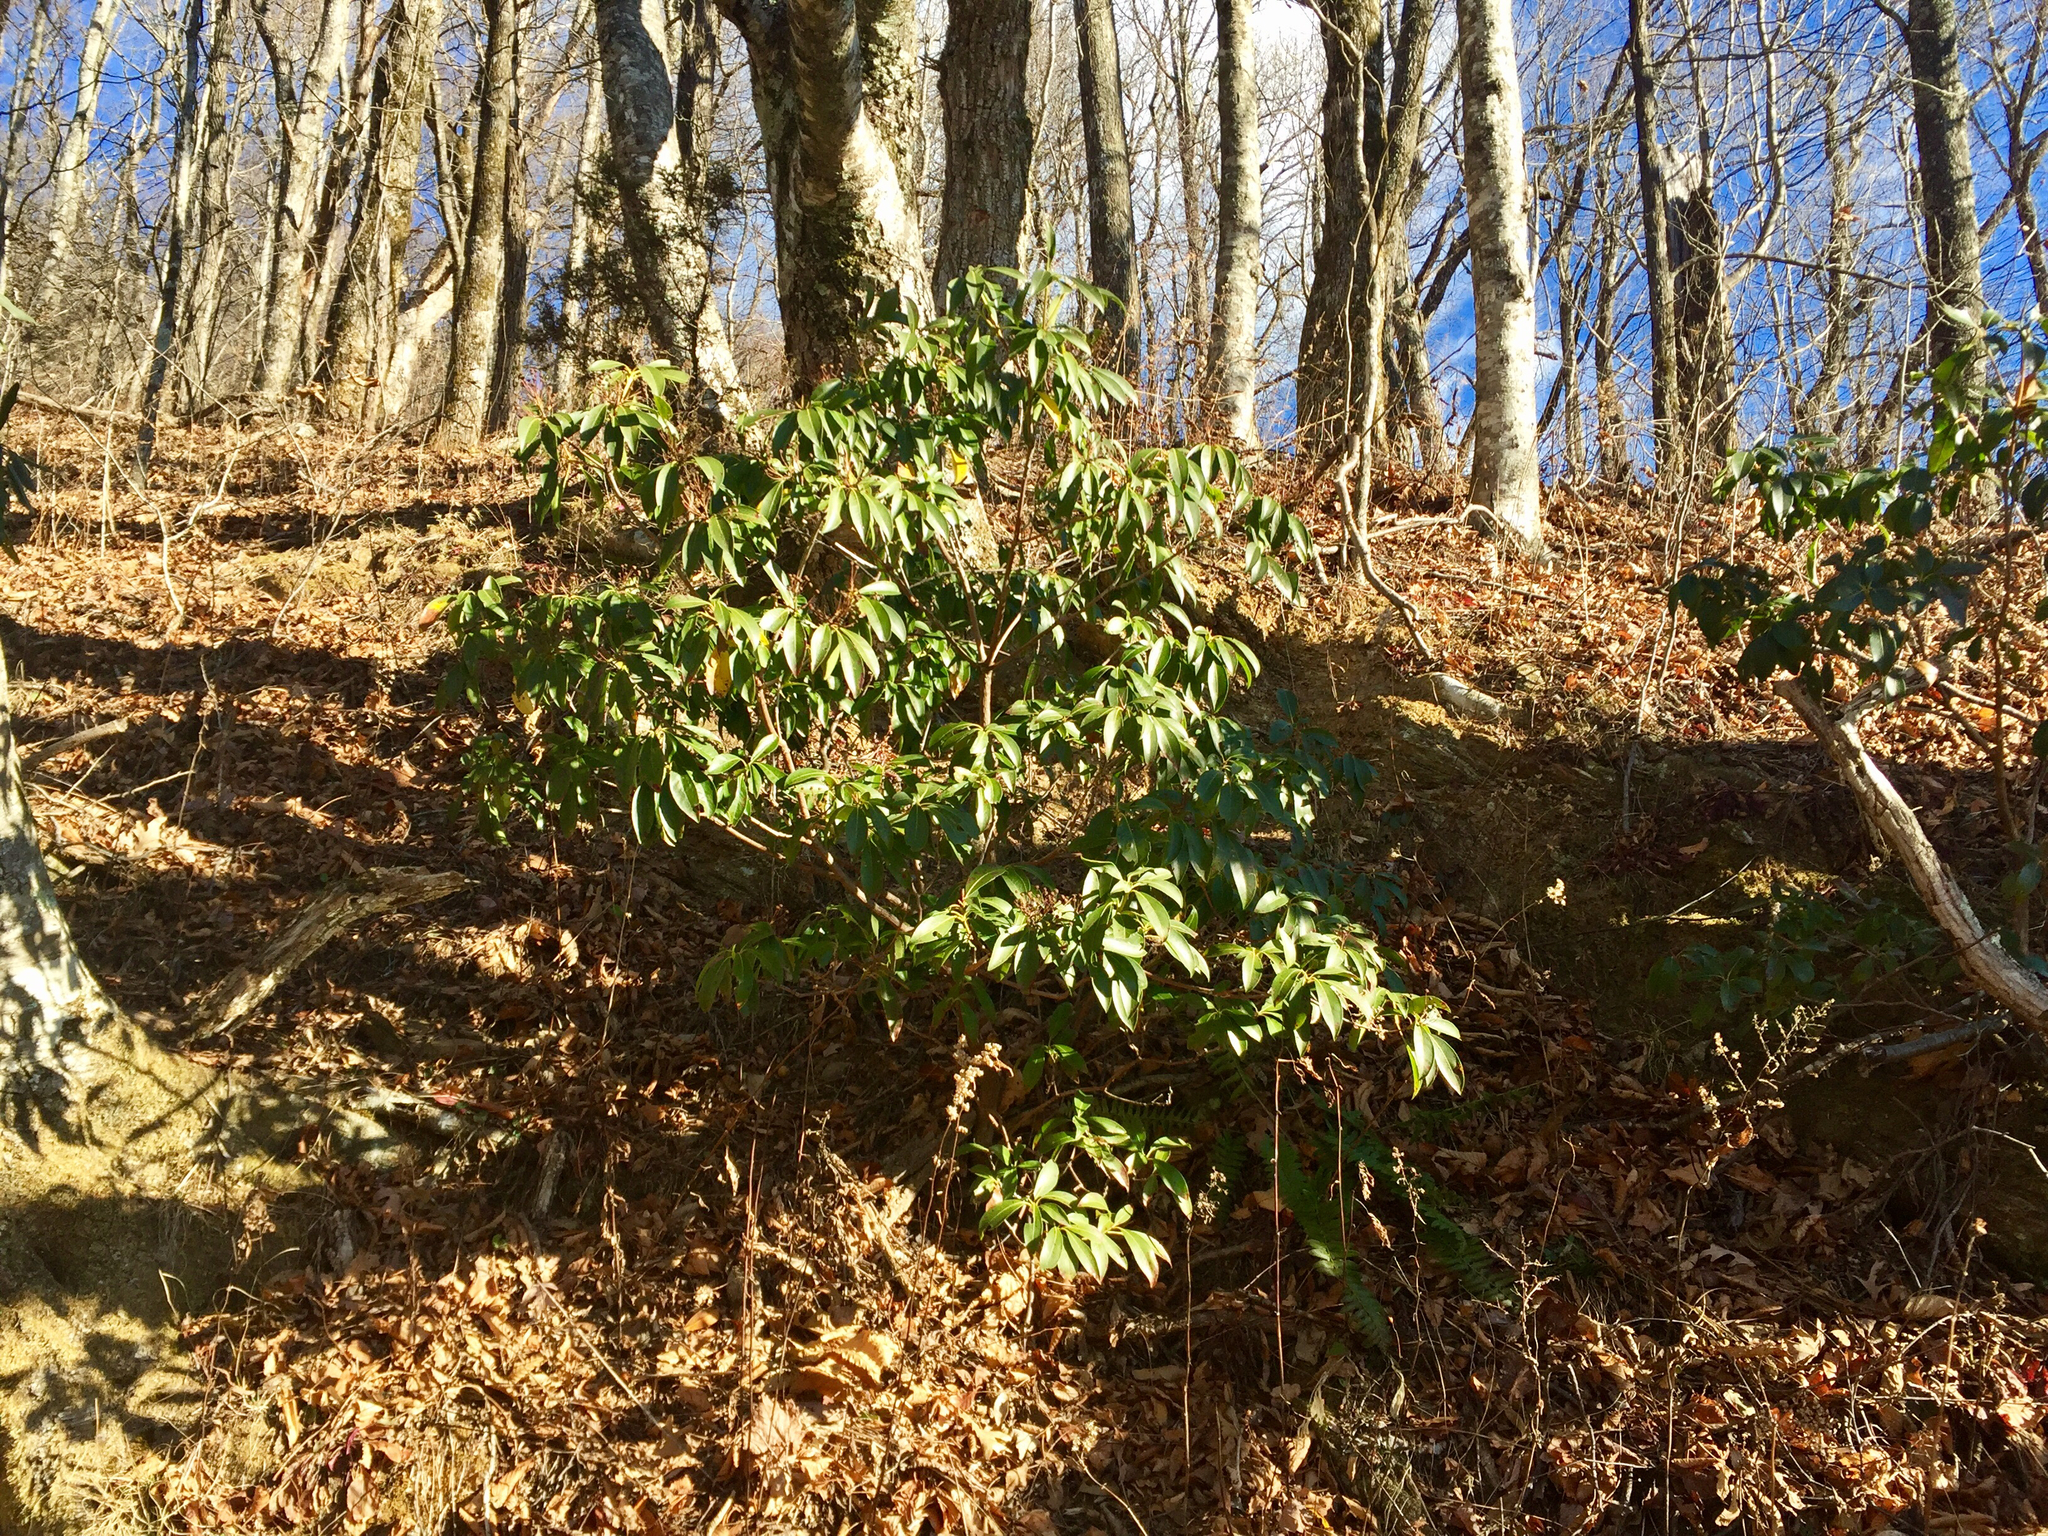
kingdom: Plantae
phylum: Tracheophyta
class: Magnoliopsida
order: Ericales
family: Ericaceae
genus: Rhododendron
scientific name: Rhododendron maximum
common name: Great rhododendron
